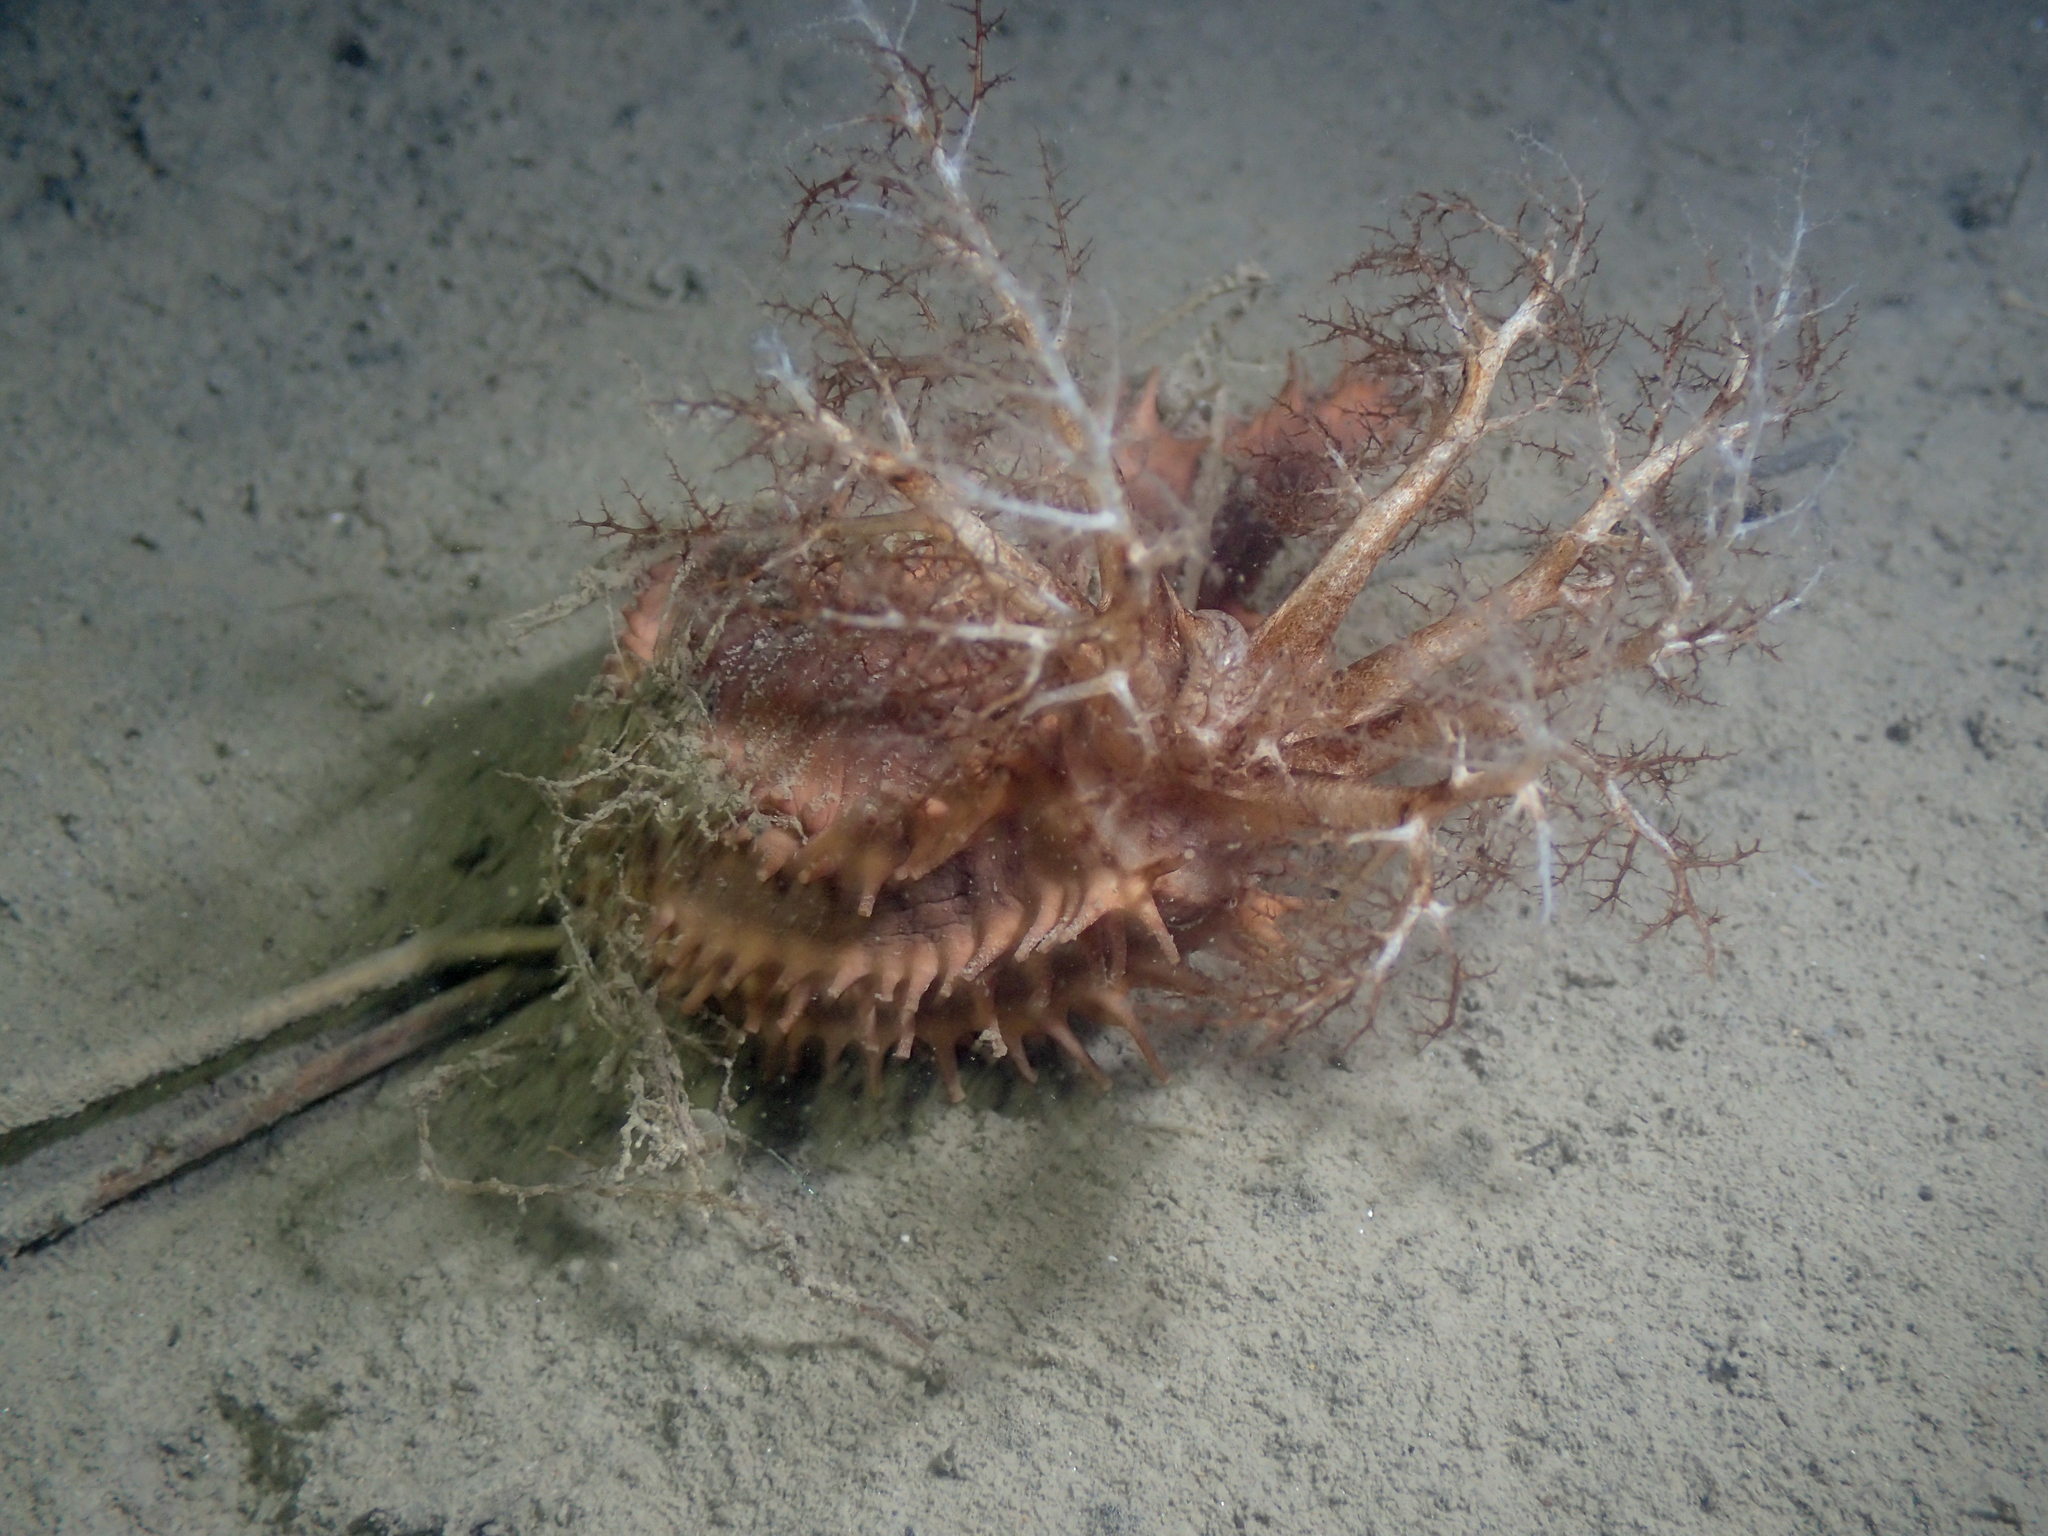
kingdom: Animalia
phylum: Echinodermata
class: Holothuroidea
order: Dendrochirotida
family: Cucumariidae
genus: Ocnus
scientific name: Ocnus planci
